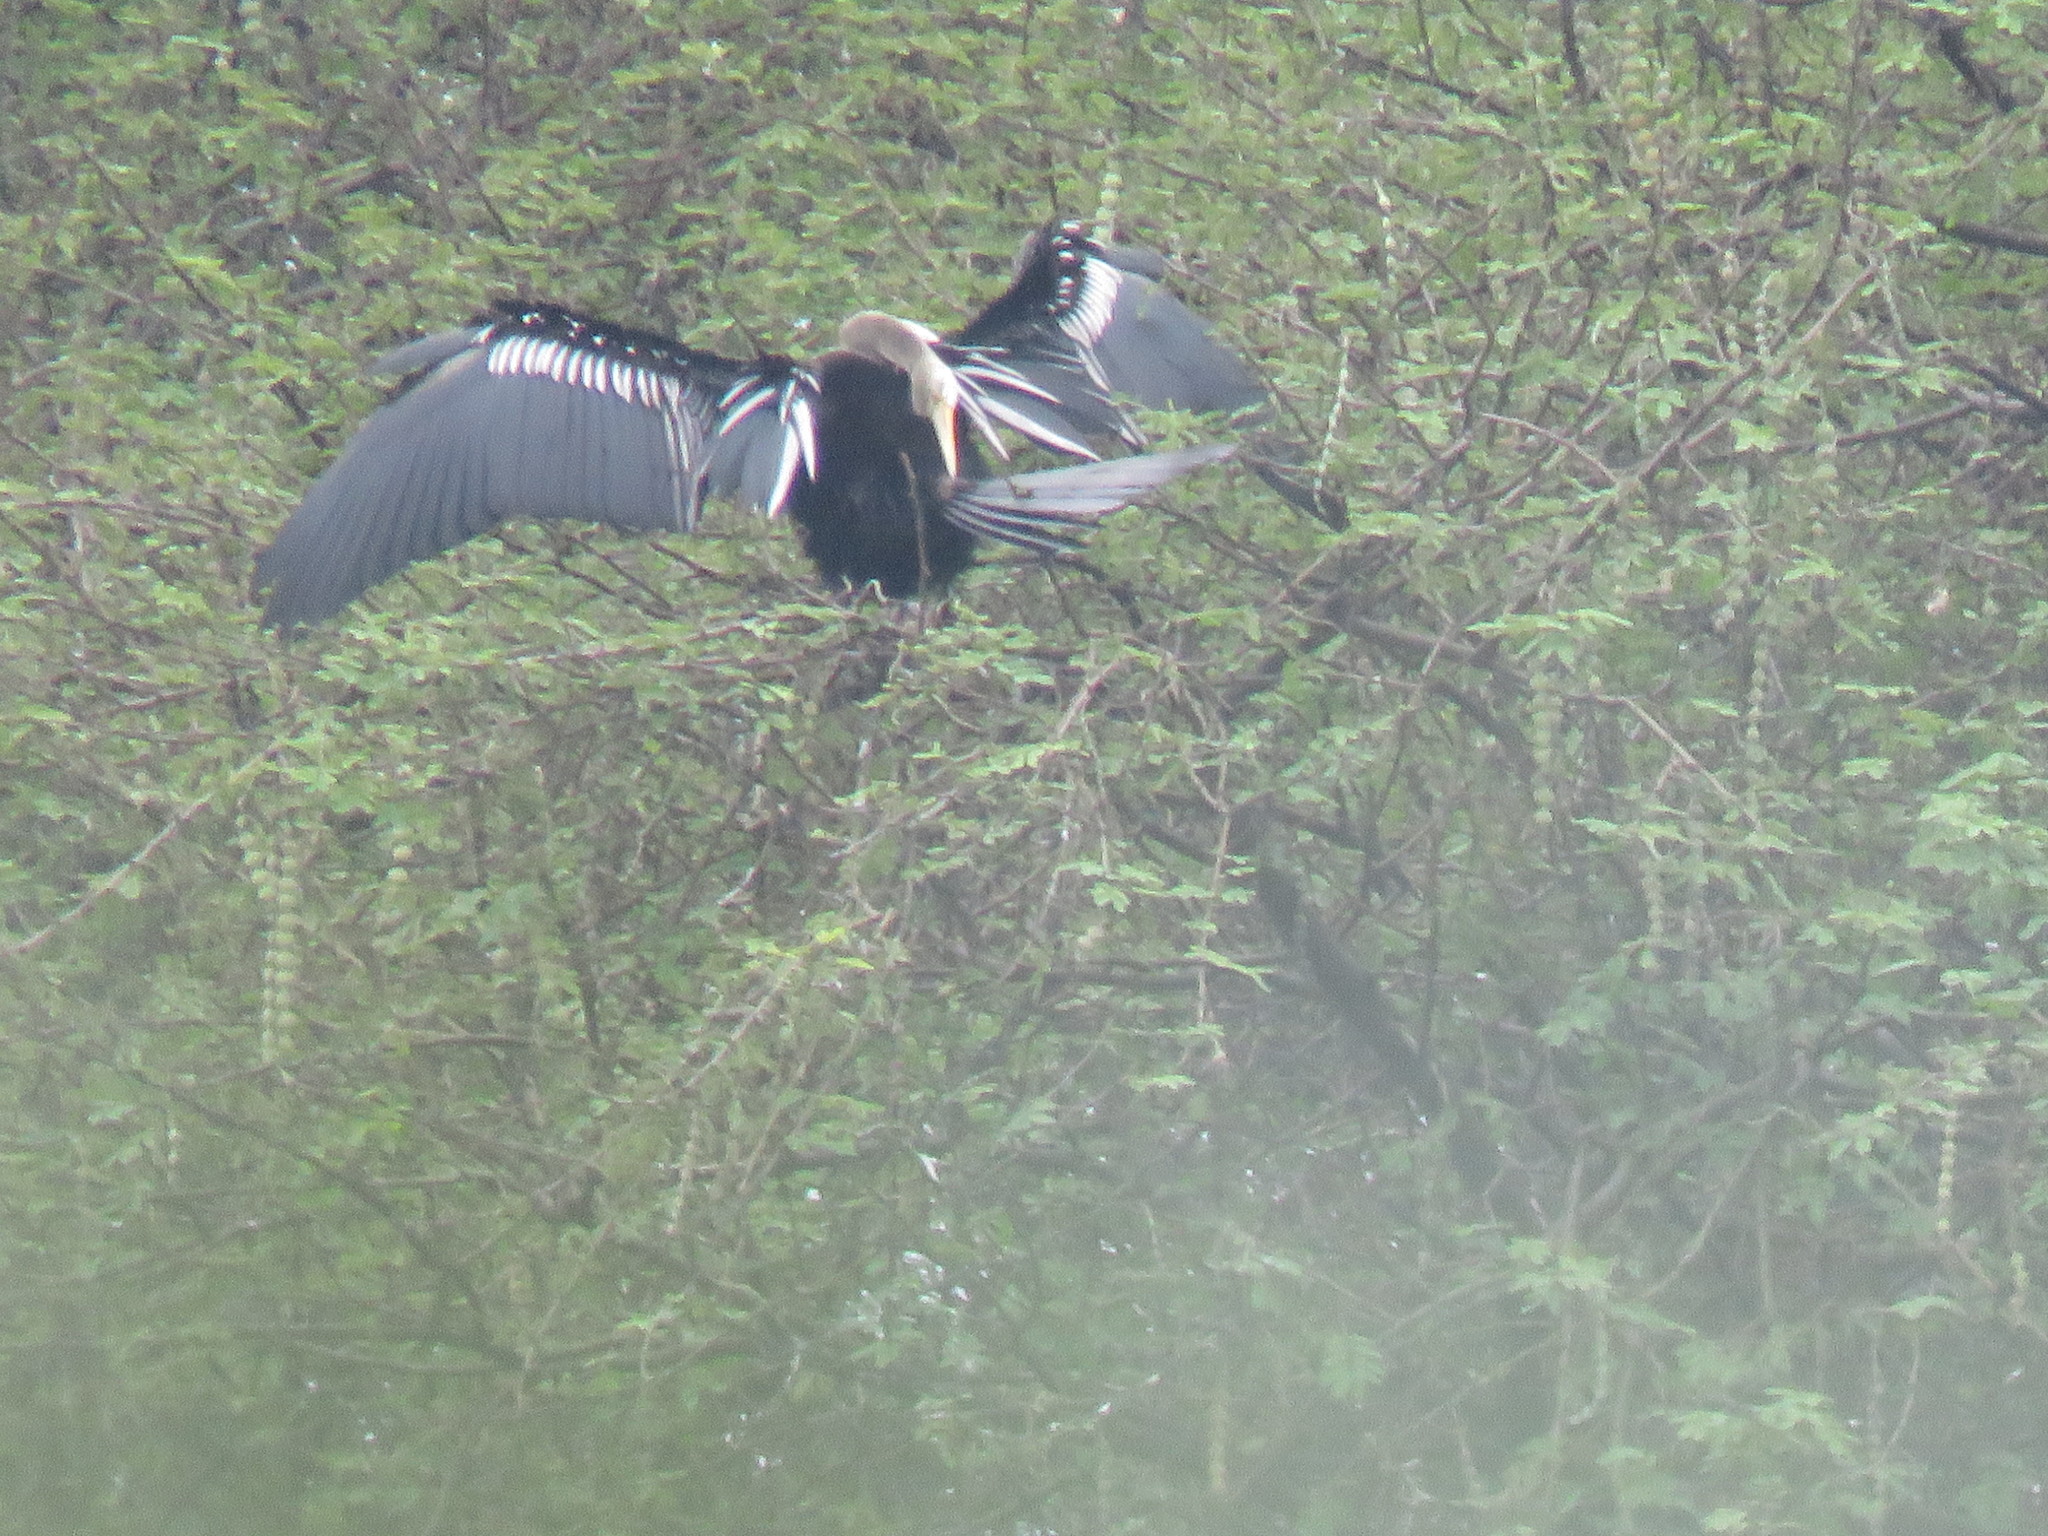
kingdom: Animalia
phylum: Chordata
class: Aves
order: Suliformes
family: Anhingidae
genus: Anhinga
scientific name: Anhinga melanogaster
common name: Oriental darter
